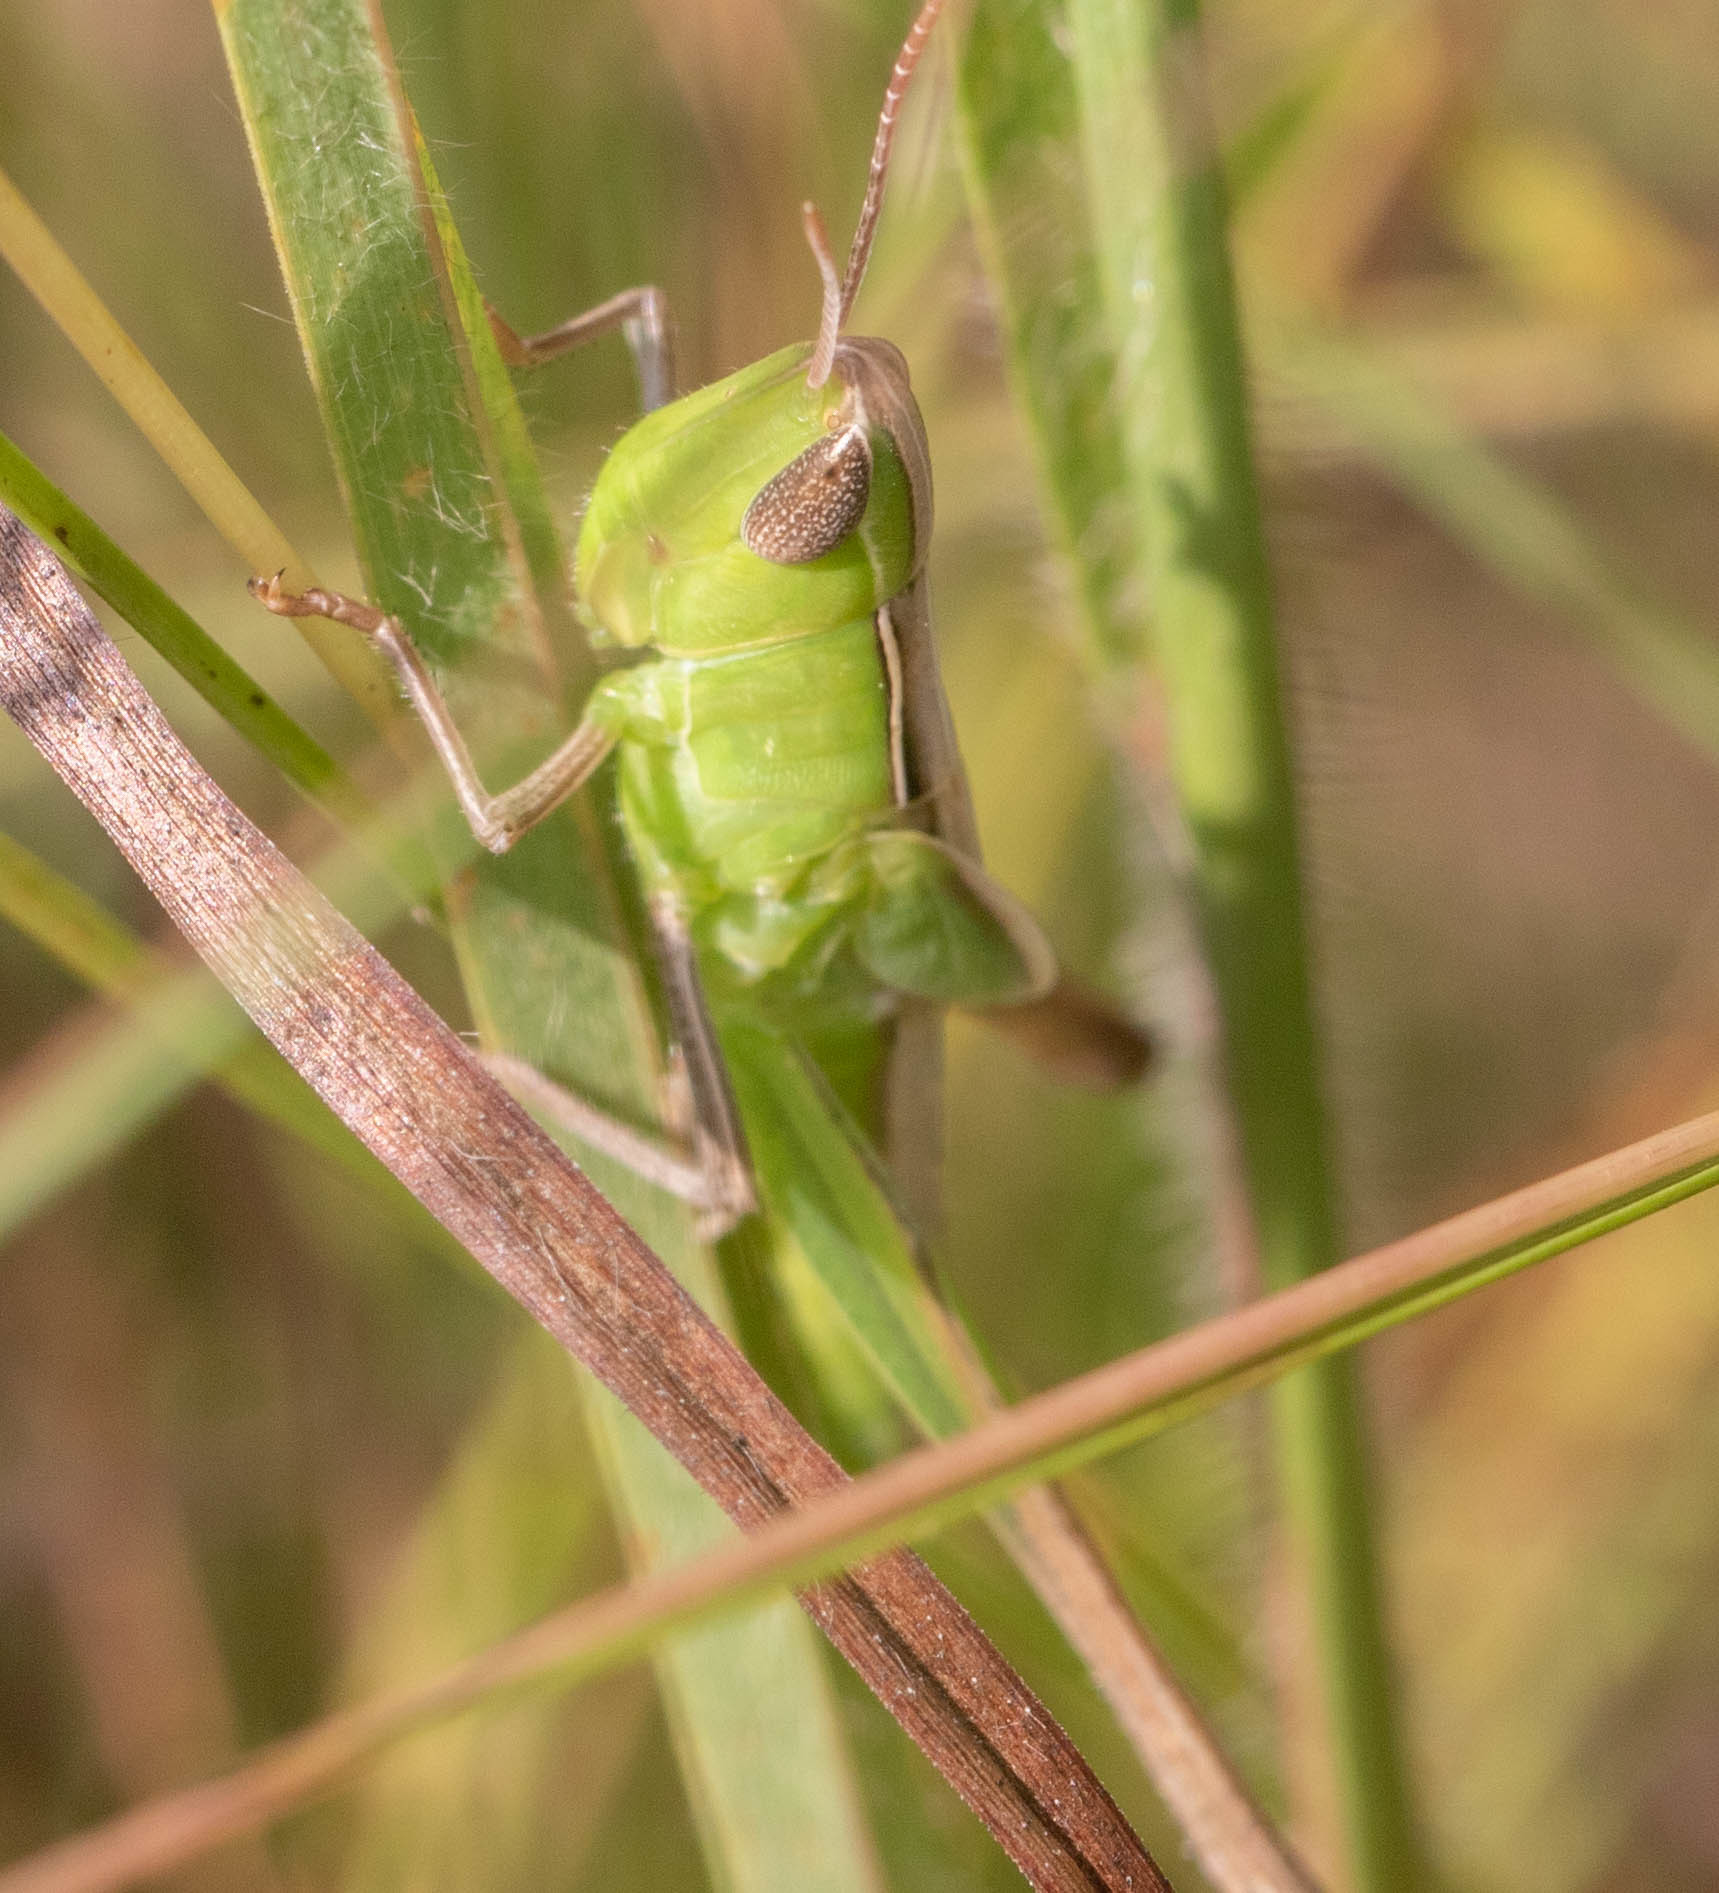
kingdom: Animalia
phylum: Arthropoda
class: Insecta
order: Orthoptera
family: Acrididae
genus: Syrbula
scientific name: Syrbula admirabilis
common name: Handsome grasshopper
